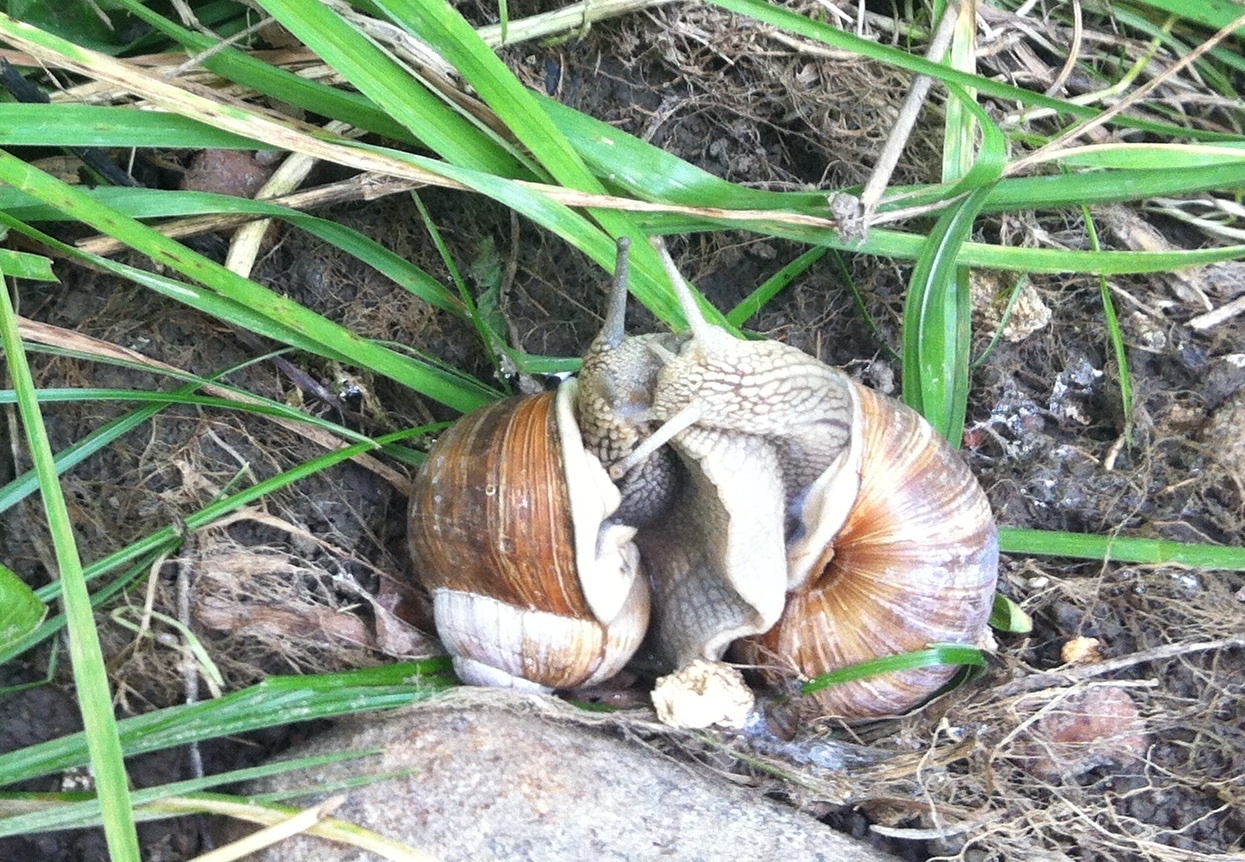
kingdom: Animalia
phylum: Mollusca
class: Gastropoda
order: Stylommatophora
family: Helicidae
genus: Helix
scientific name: Helix pomatia
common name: Roman snail
